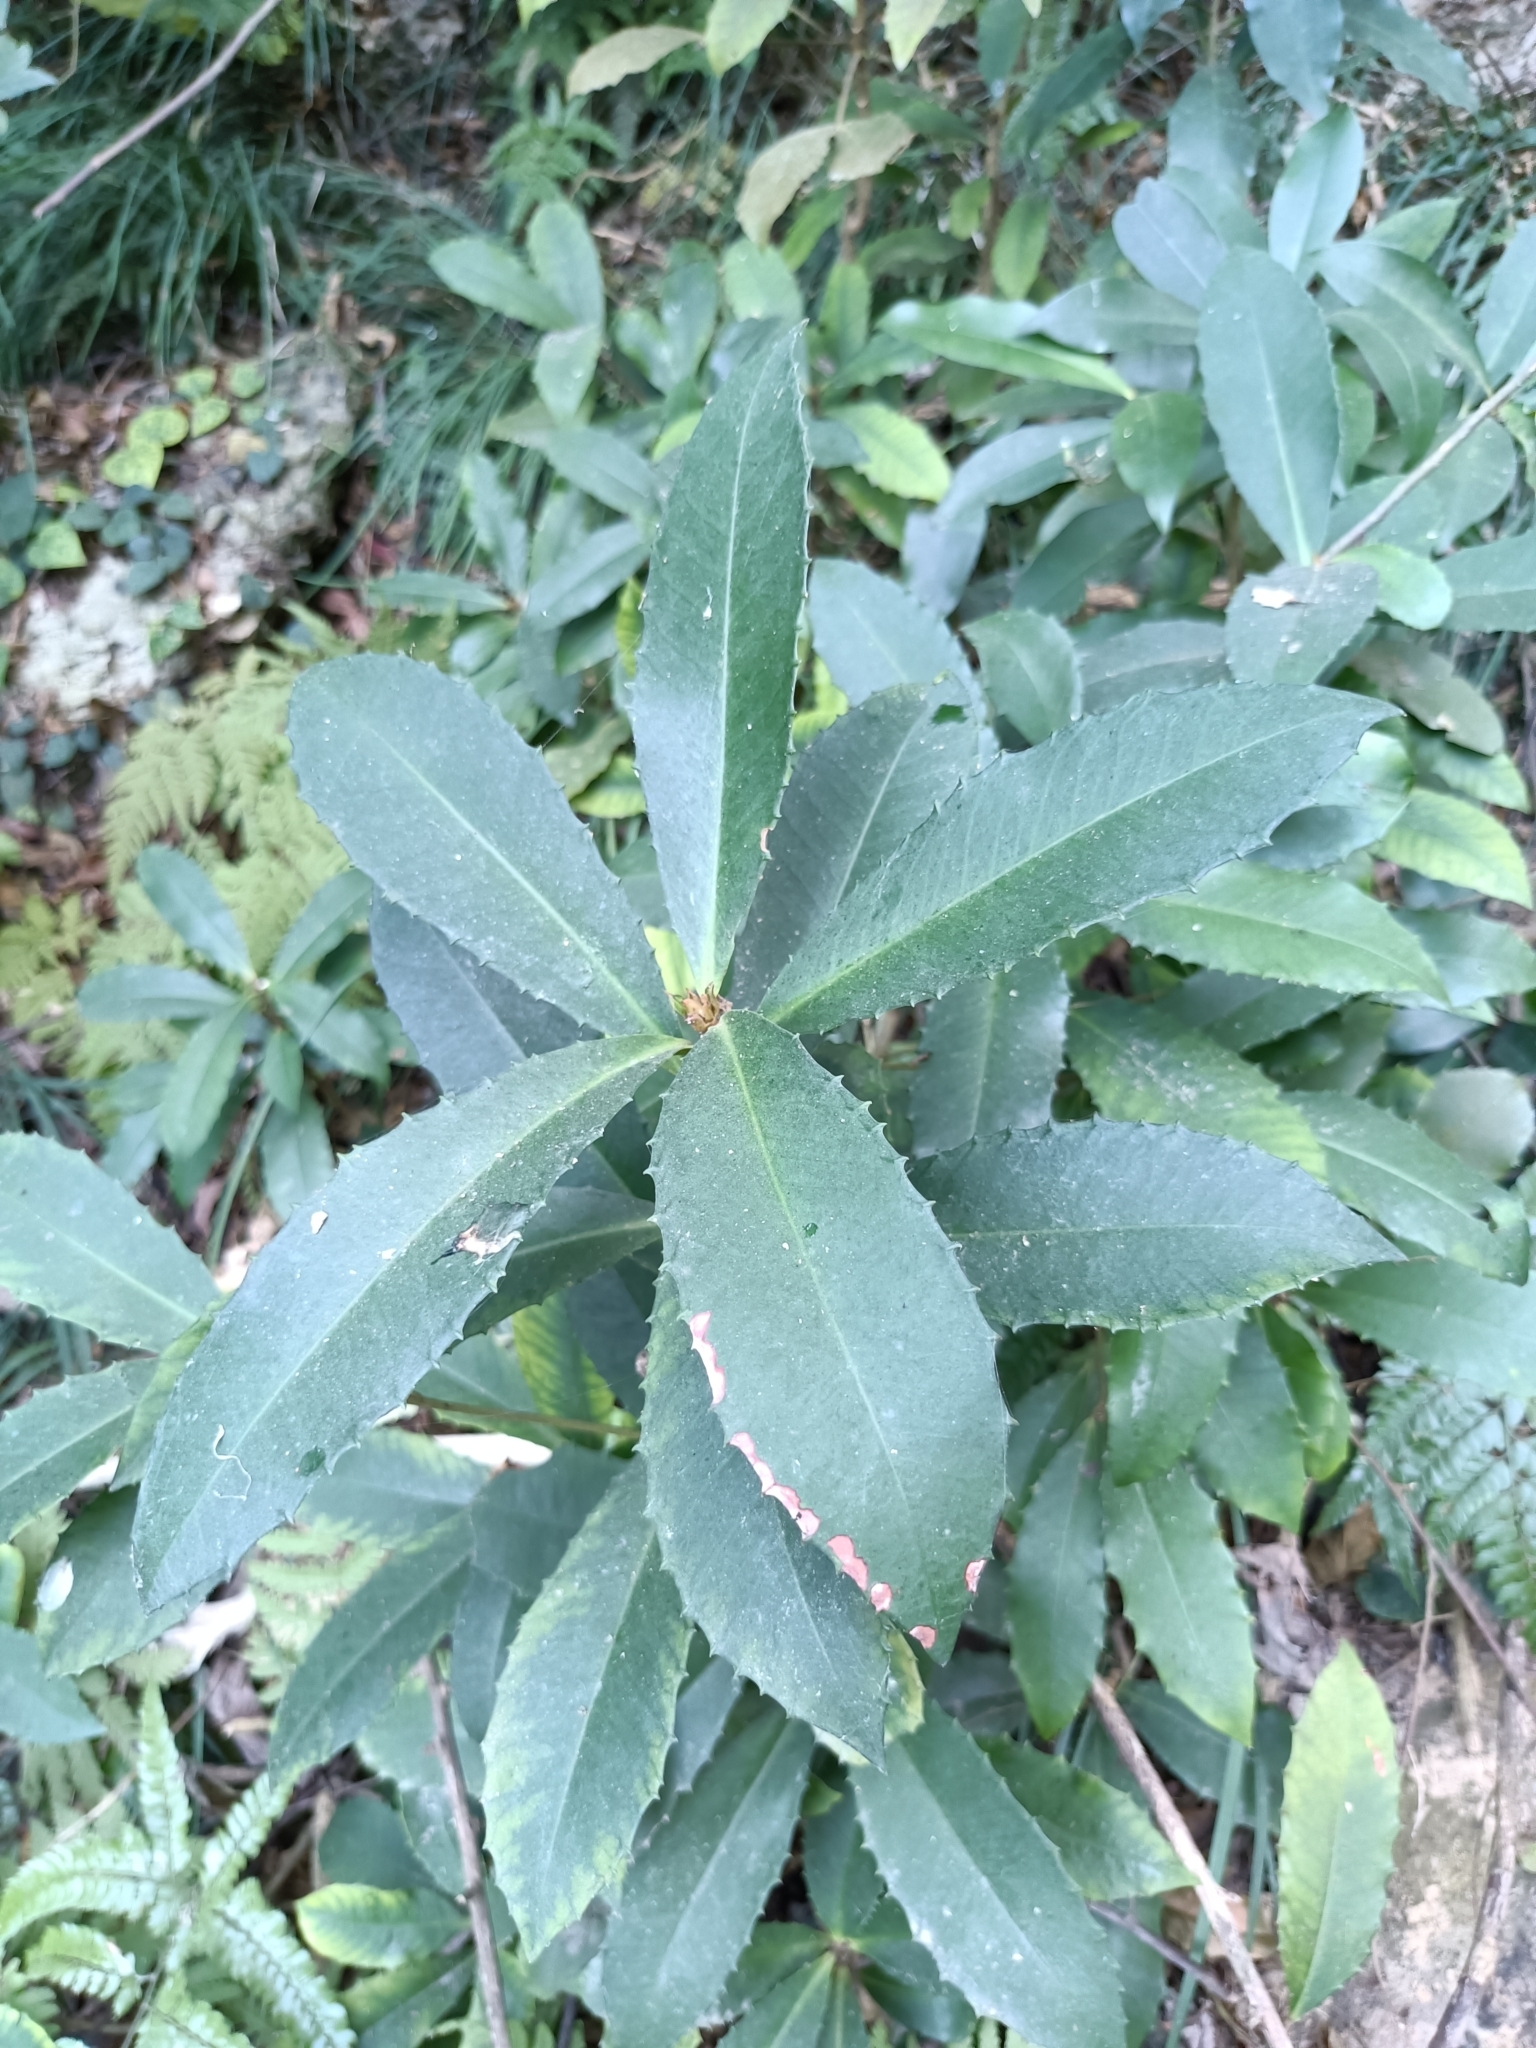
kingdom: Plantae
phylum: Tracheophyta
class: Magnoliopsida
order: Ericales
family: Primulaceae
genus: Ardisia
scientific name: Ardisia cornudentata
